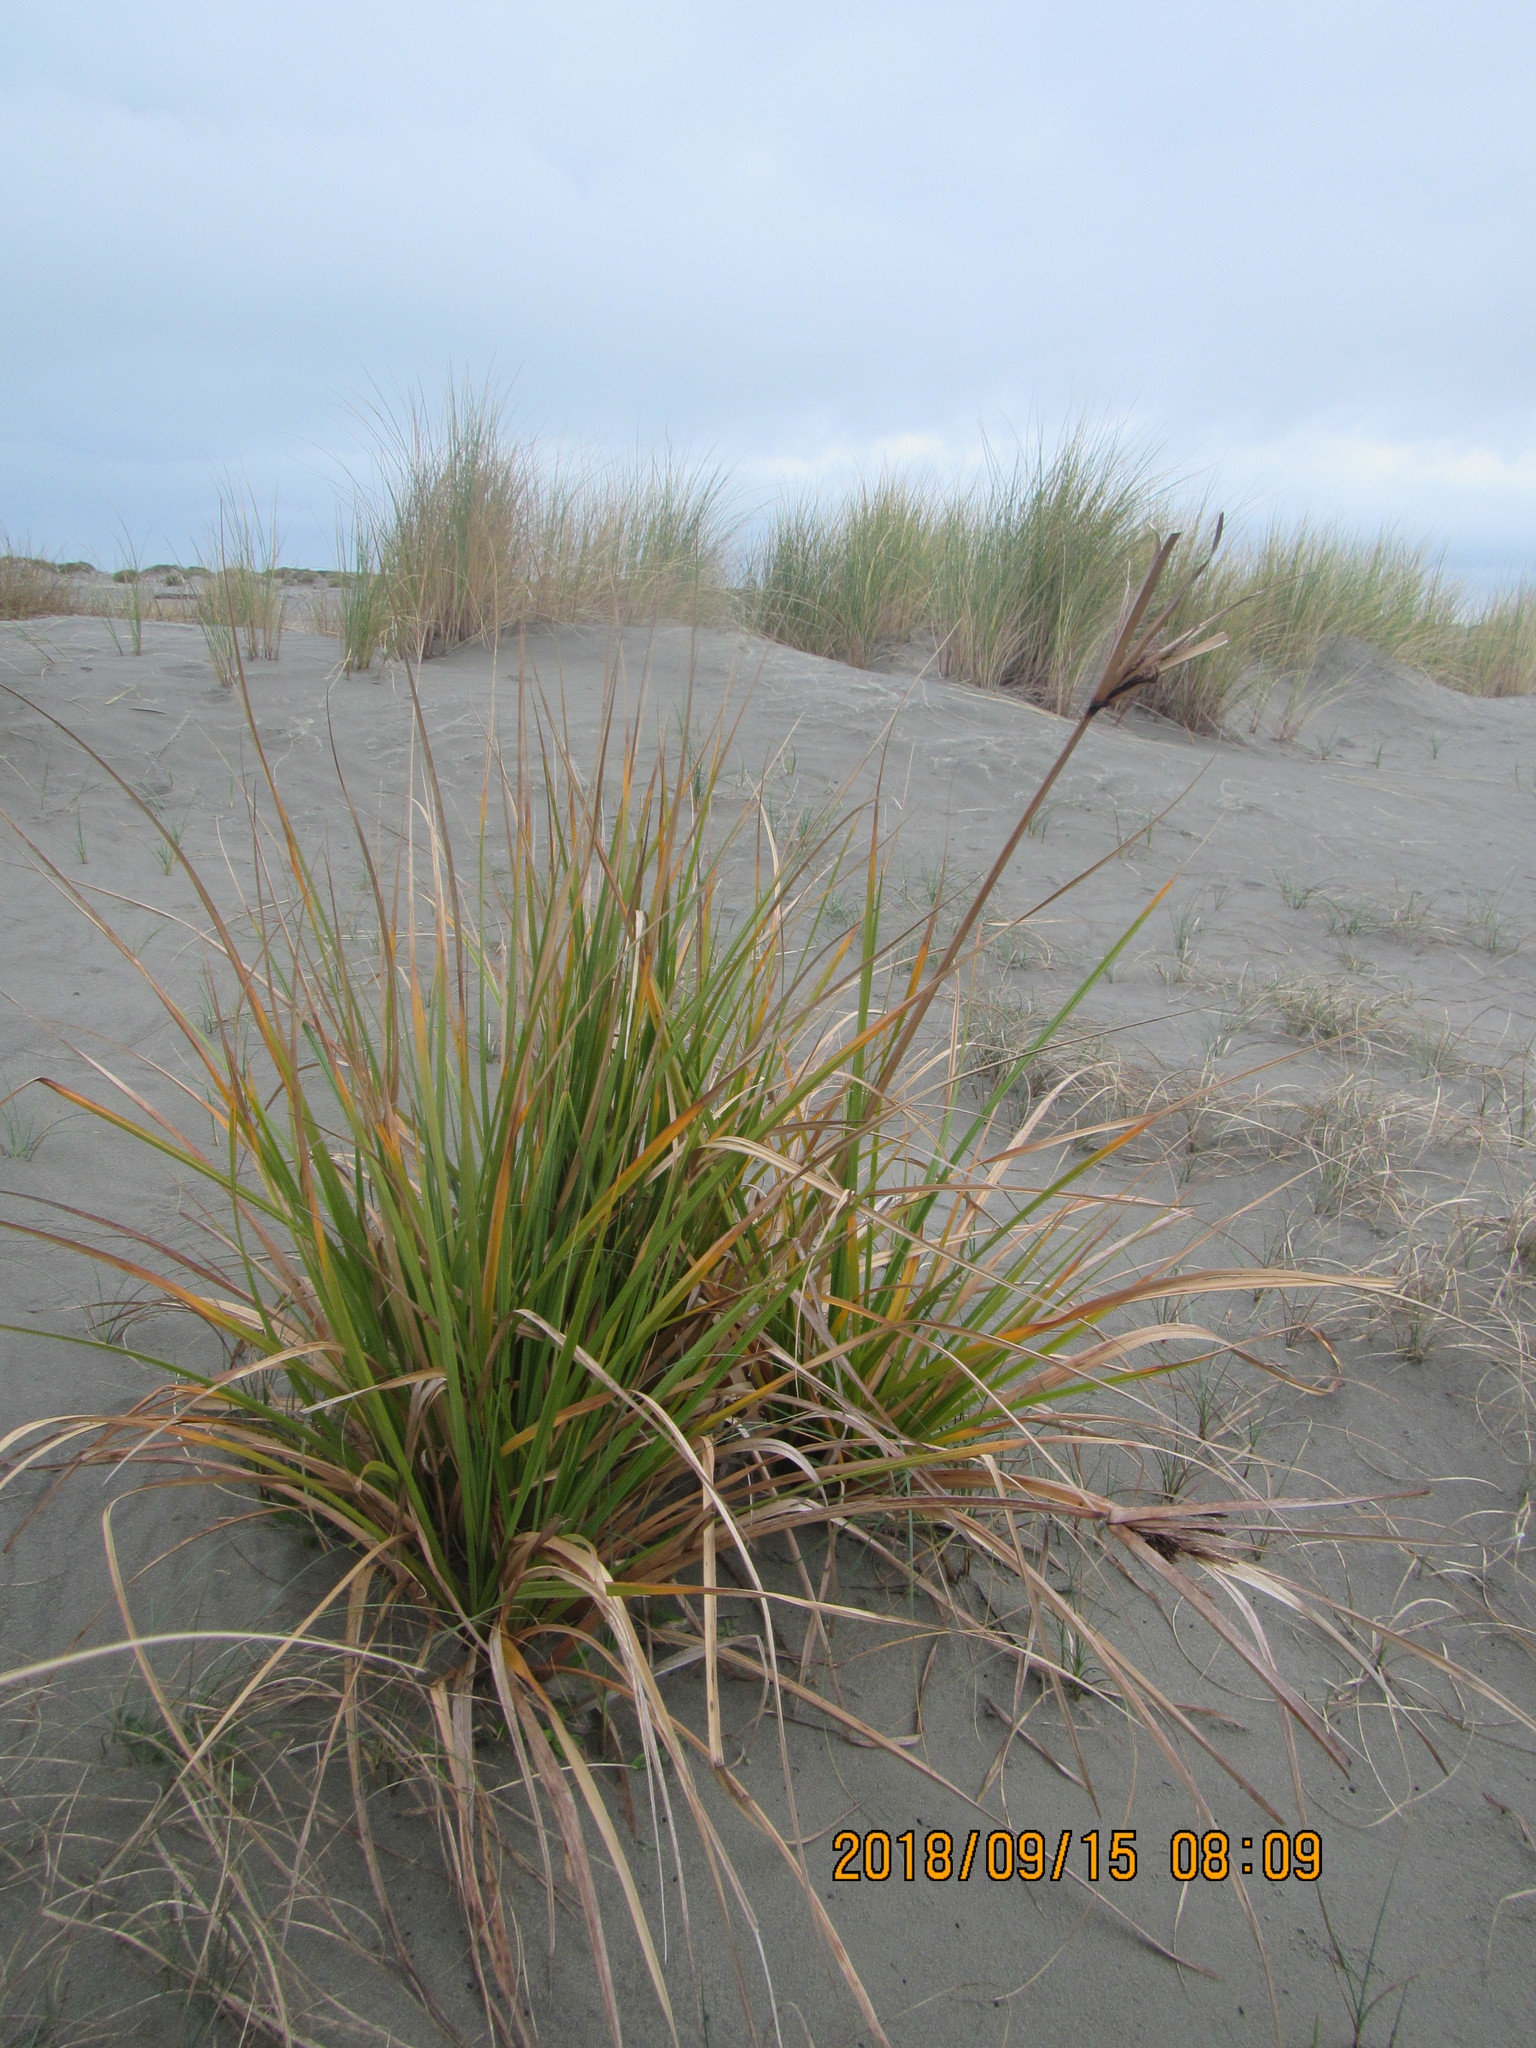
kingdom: Plantae
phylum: Tracheophyta
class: Liliopsida
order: Poales
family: Cyperaceae
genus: Cyperus
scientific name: Cyperus ustulatus
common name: Giant umbrella-sedge
